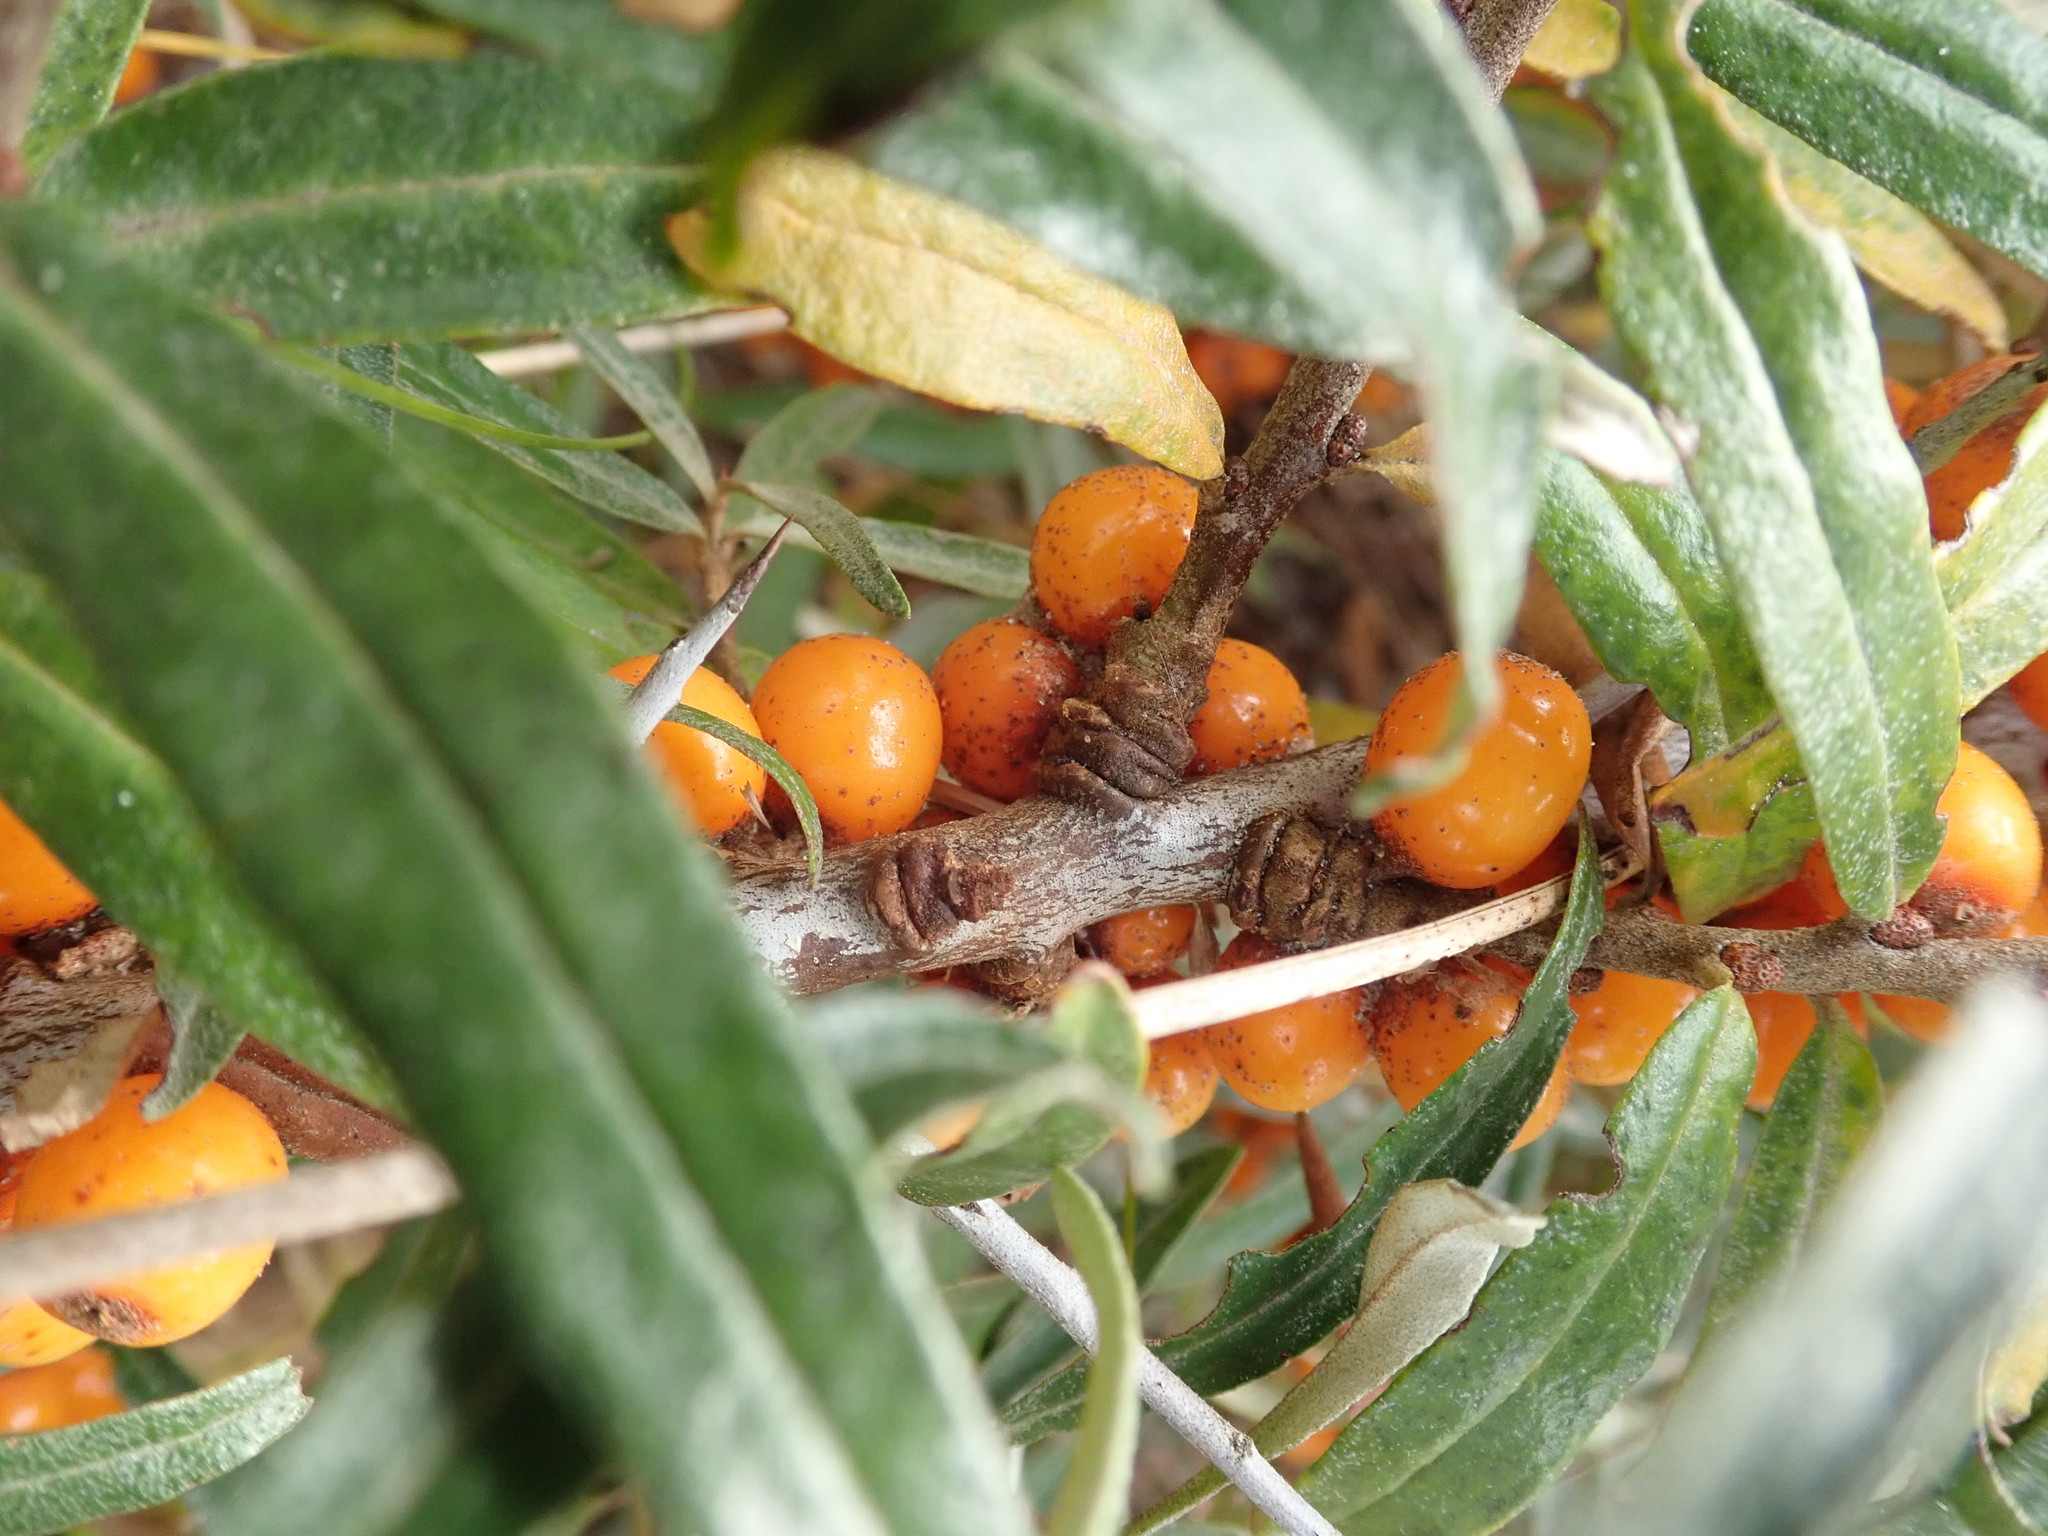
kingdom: Plantae
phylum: Tracheophyta
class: Magnoliopsida
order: Rosales
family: Elaeagnaceae
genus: Hippophae
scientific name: Hippophae rhamnoides
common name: Sea-buckthorn
